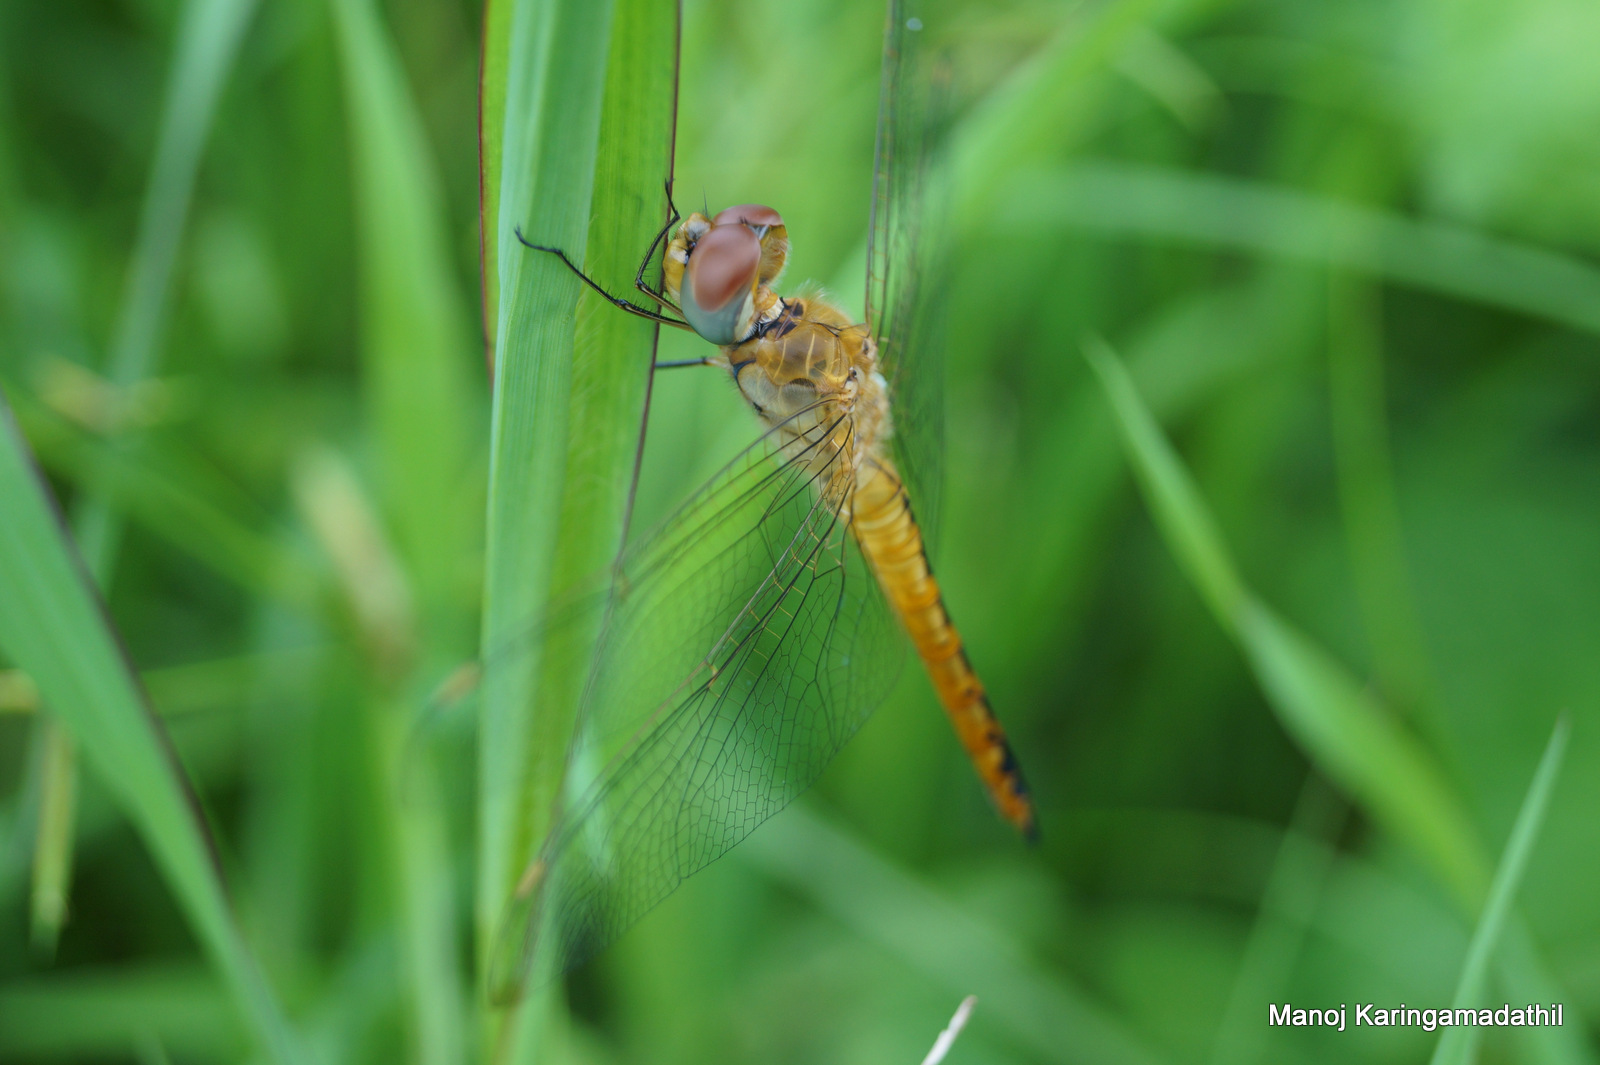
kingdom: Animalia
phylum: Arthropoda
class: Insecta
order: Odonata
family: Libellulidae
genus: Pantala
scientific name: Pantala flavescens
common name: Wandering glider
